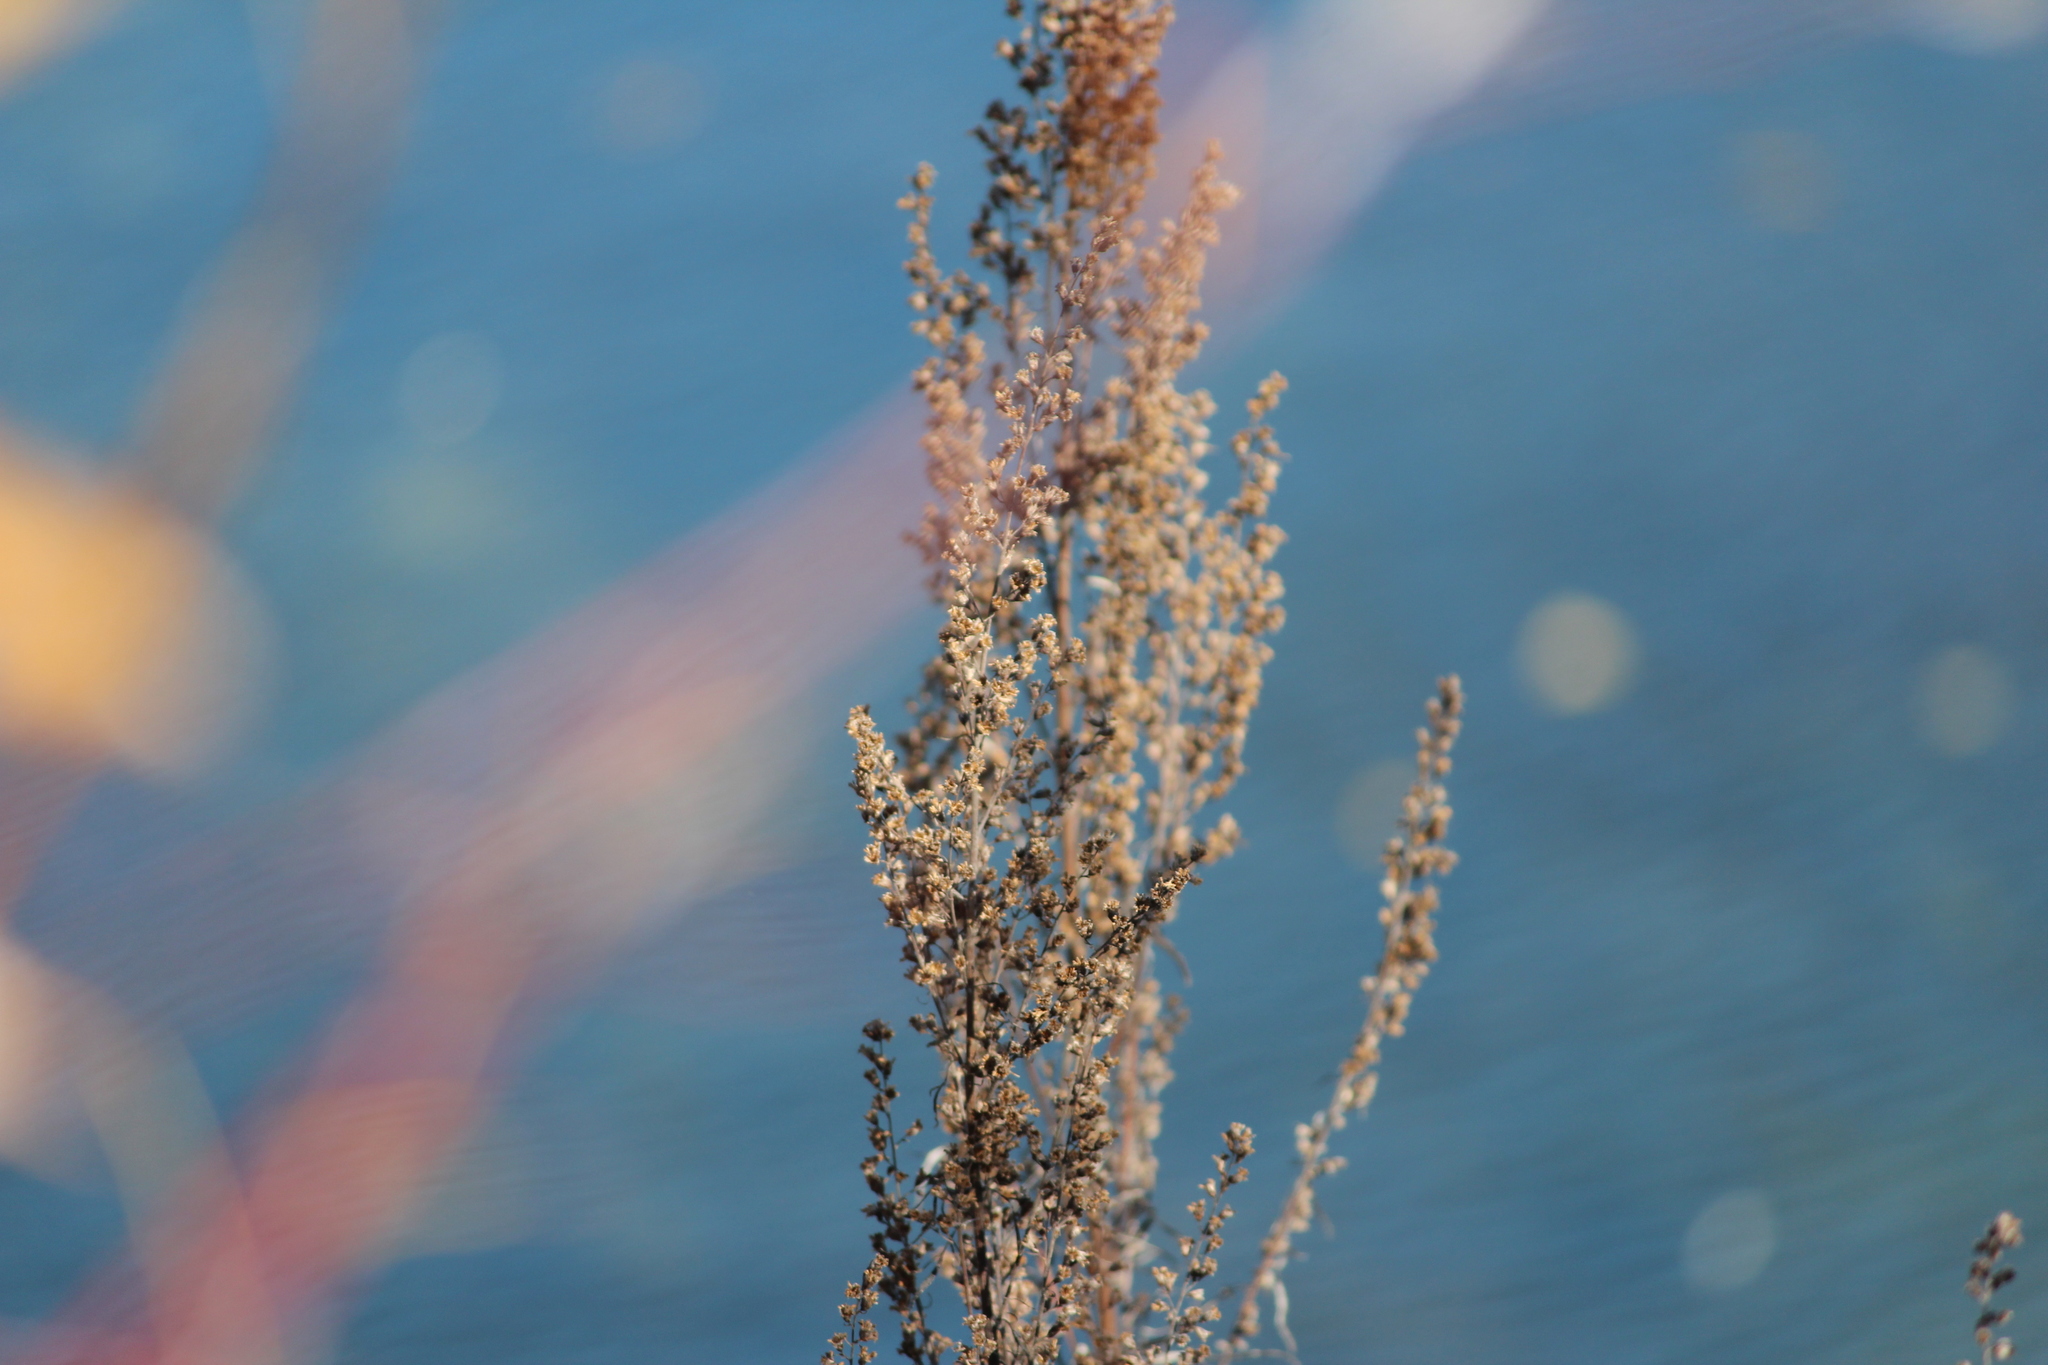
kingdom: Plantae
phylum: Tracheophyta
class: Magnoliopsida
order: Asterales
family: Asteraceae
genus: Artemisia
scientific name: Artemisia vulgaris
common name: Mugwort
